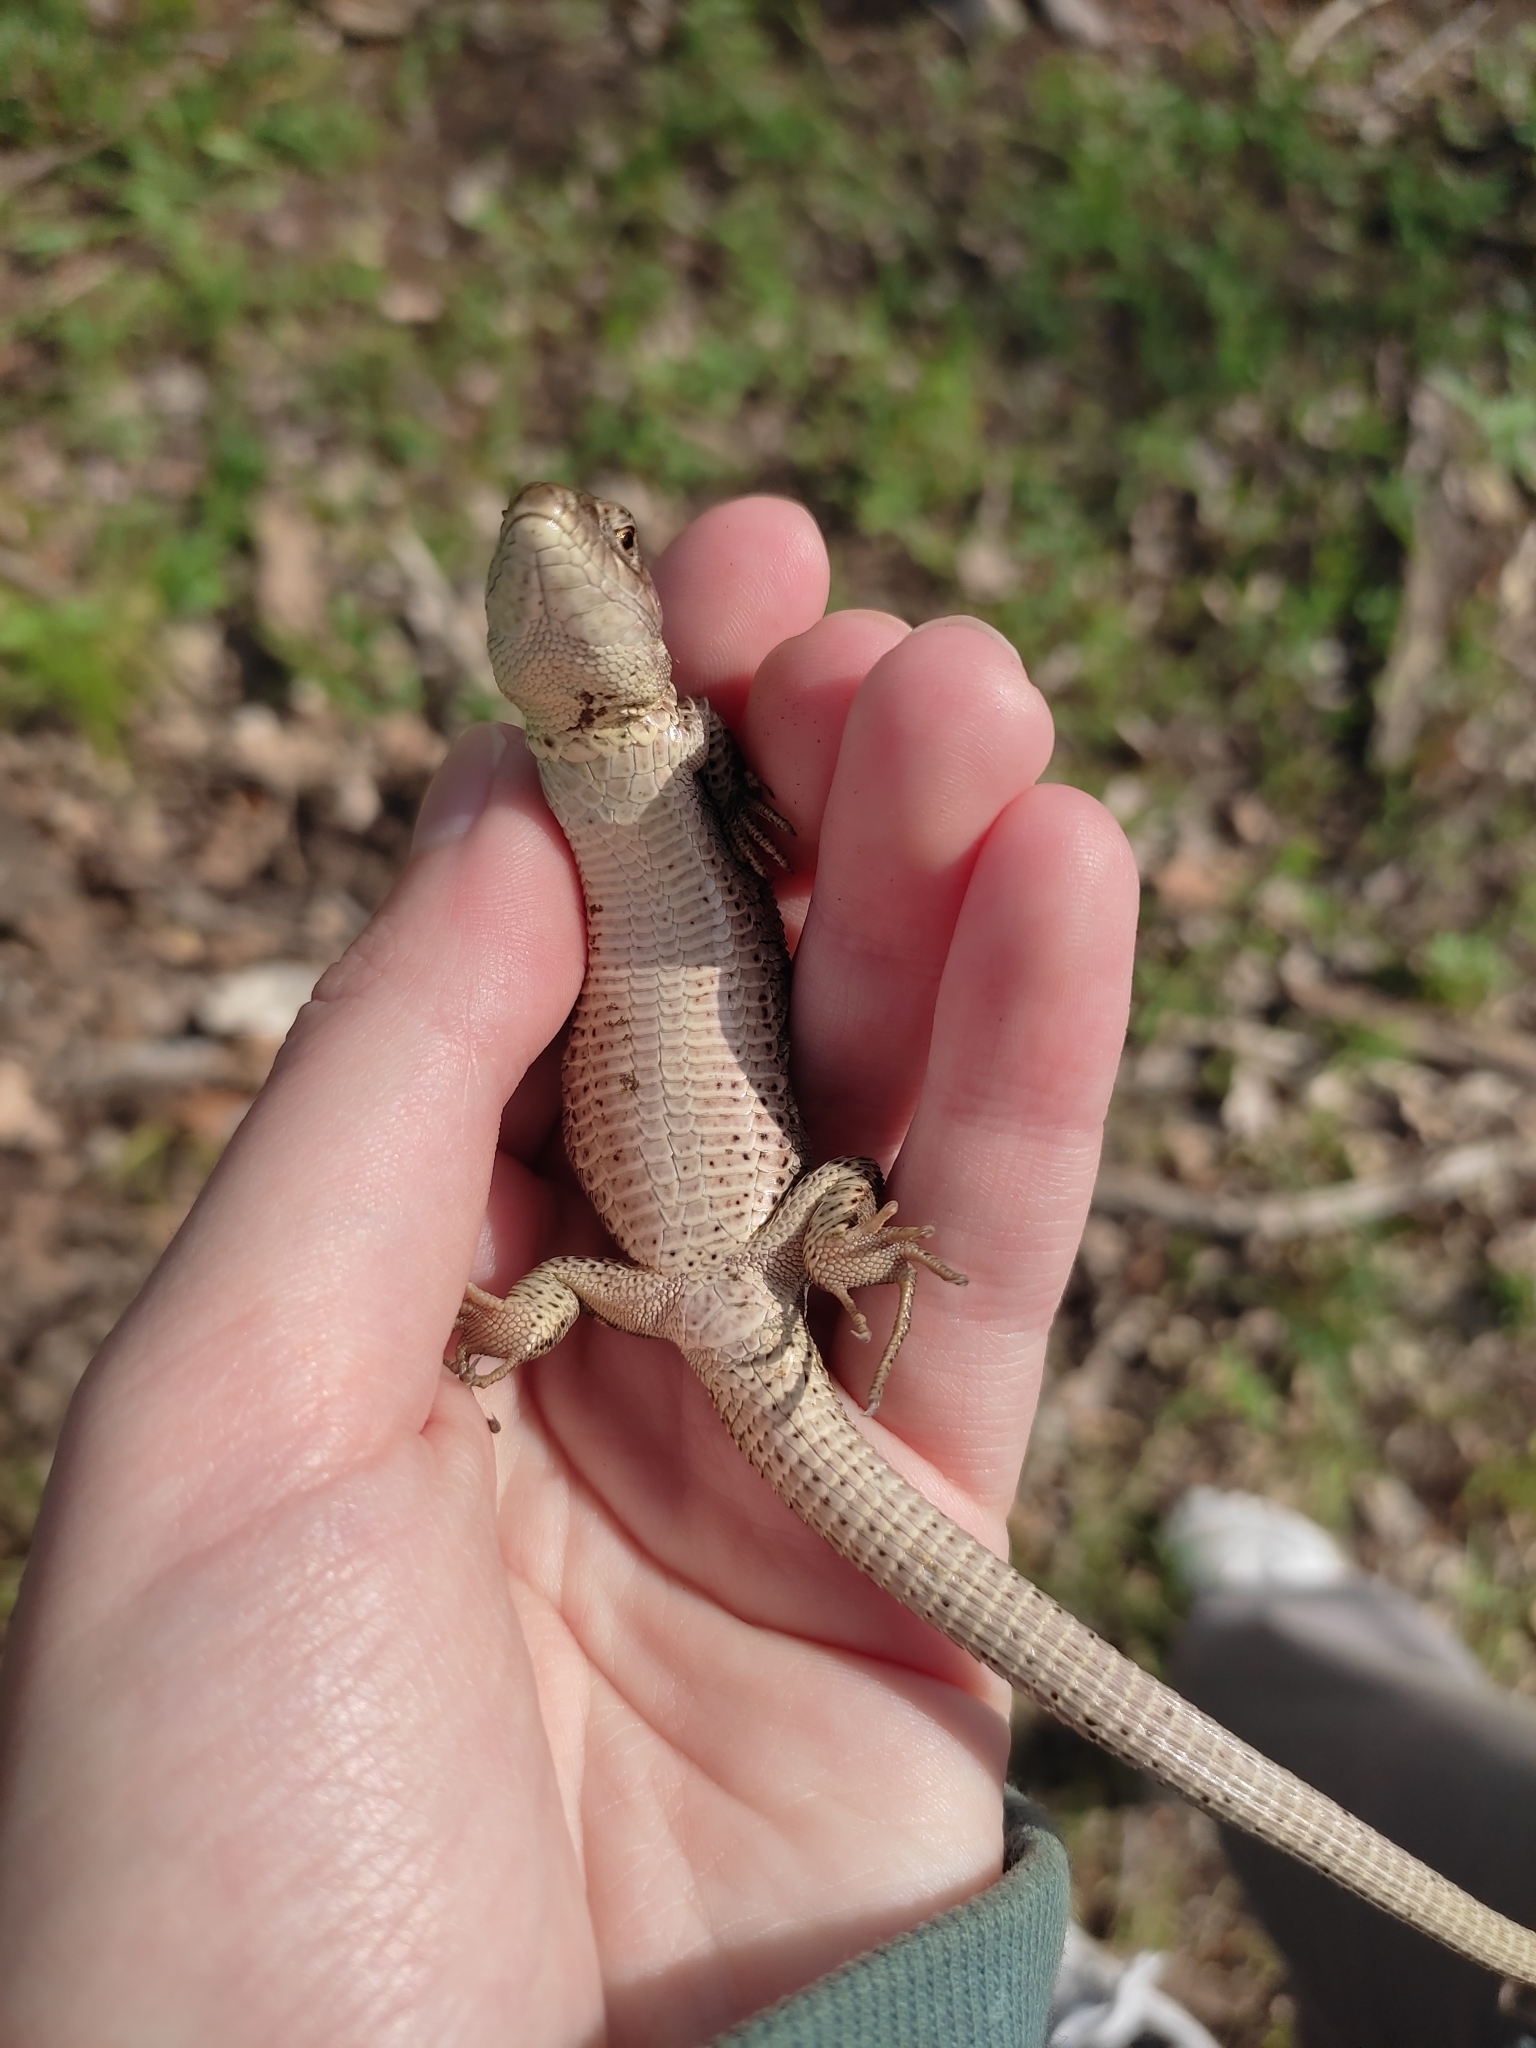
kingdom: Animalia
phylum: Chordata
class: Squamata
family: Lacertidae
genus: Lacerta
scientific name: Lacerta agilis
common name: Sand lizard
